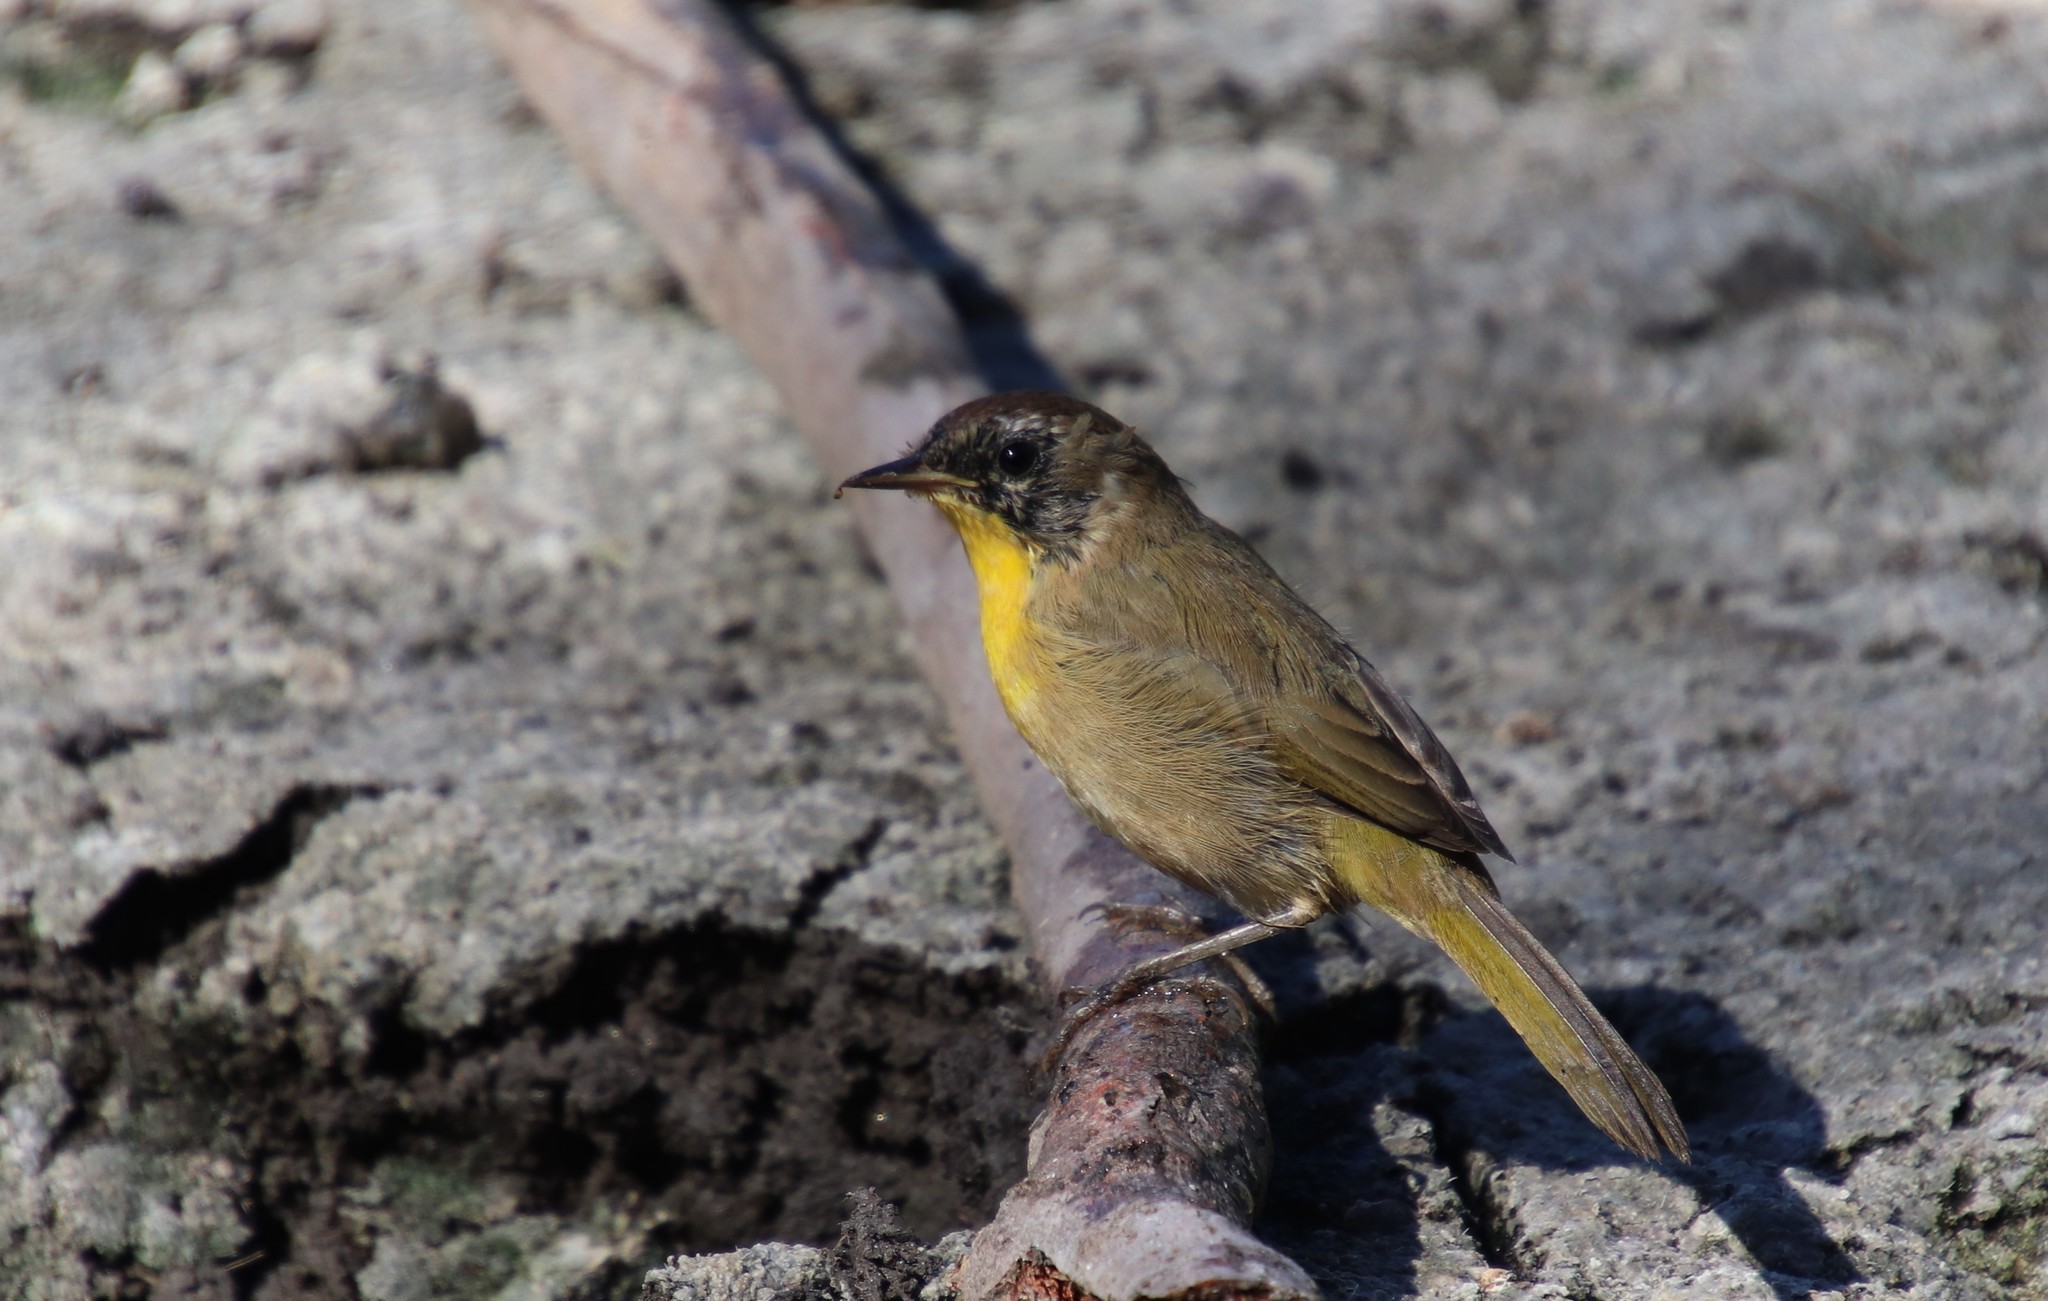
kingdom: Animalia
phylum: Chordata
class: Aves
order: Passeriformes
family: Parulidae
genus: Geothlypis
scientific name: Geothlypis trichas
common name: Common yellowthroat
